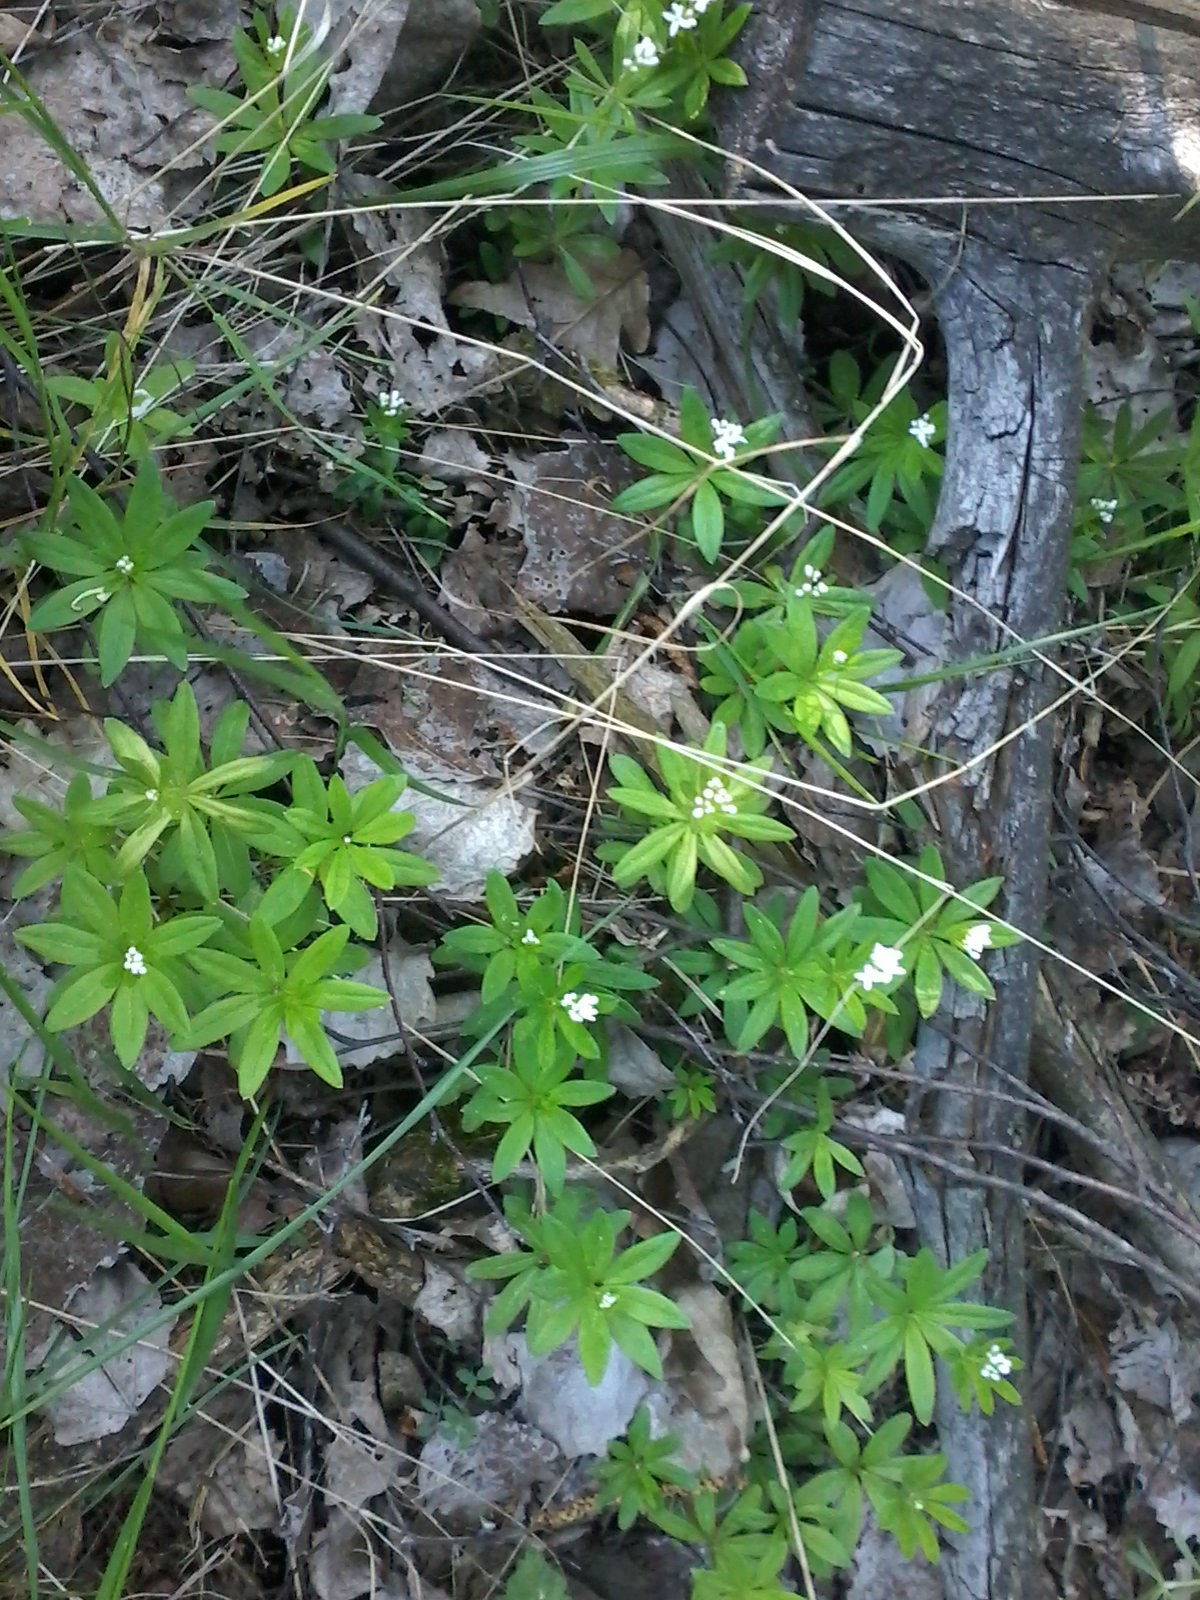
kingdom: Plantae
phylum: Tracheophyta
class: Magnoliopsida
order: Gentianales
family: Rubiaceae
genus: Galium
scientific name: Galium odoratum
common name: Sweet woodruff
